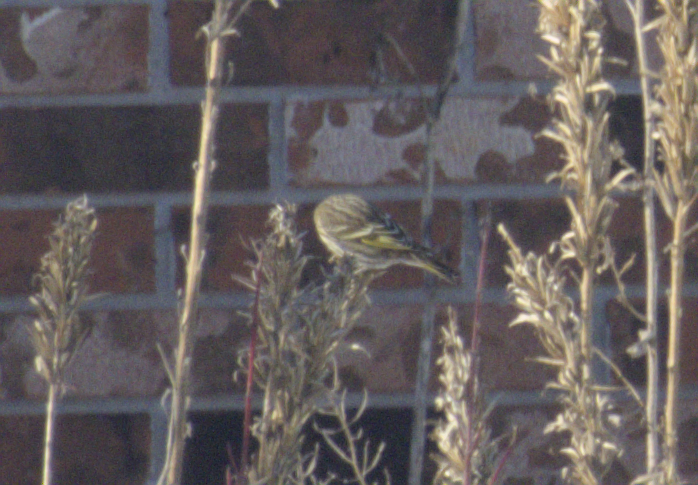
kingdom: Animalia
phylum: Chordata
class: Aves
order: Passeriformes
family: Fringillidae
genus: Spinus
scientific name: Spinus pinus
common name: Pine siskin
